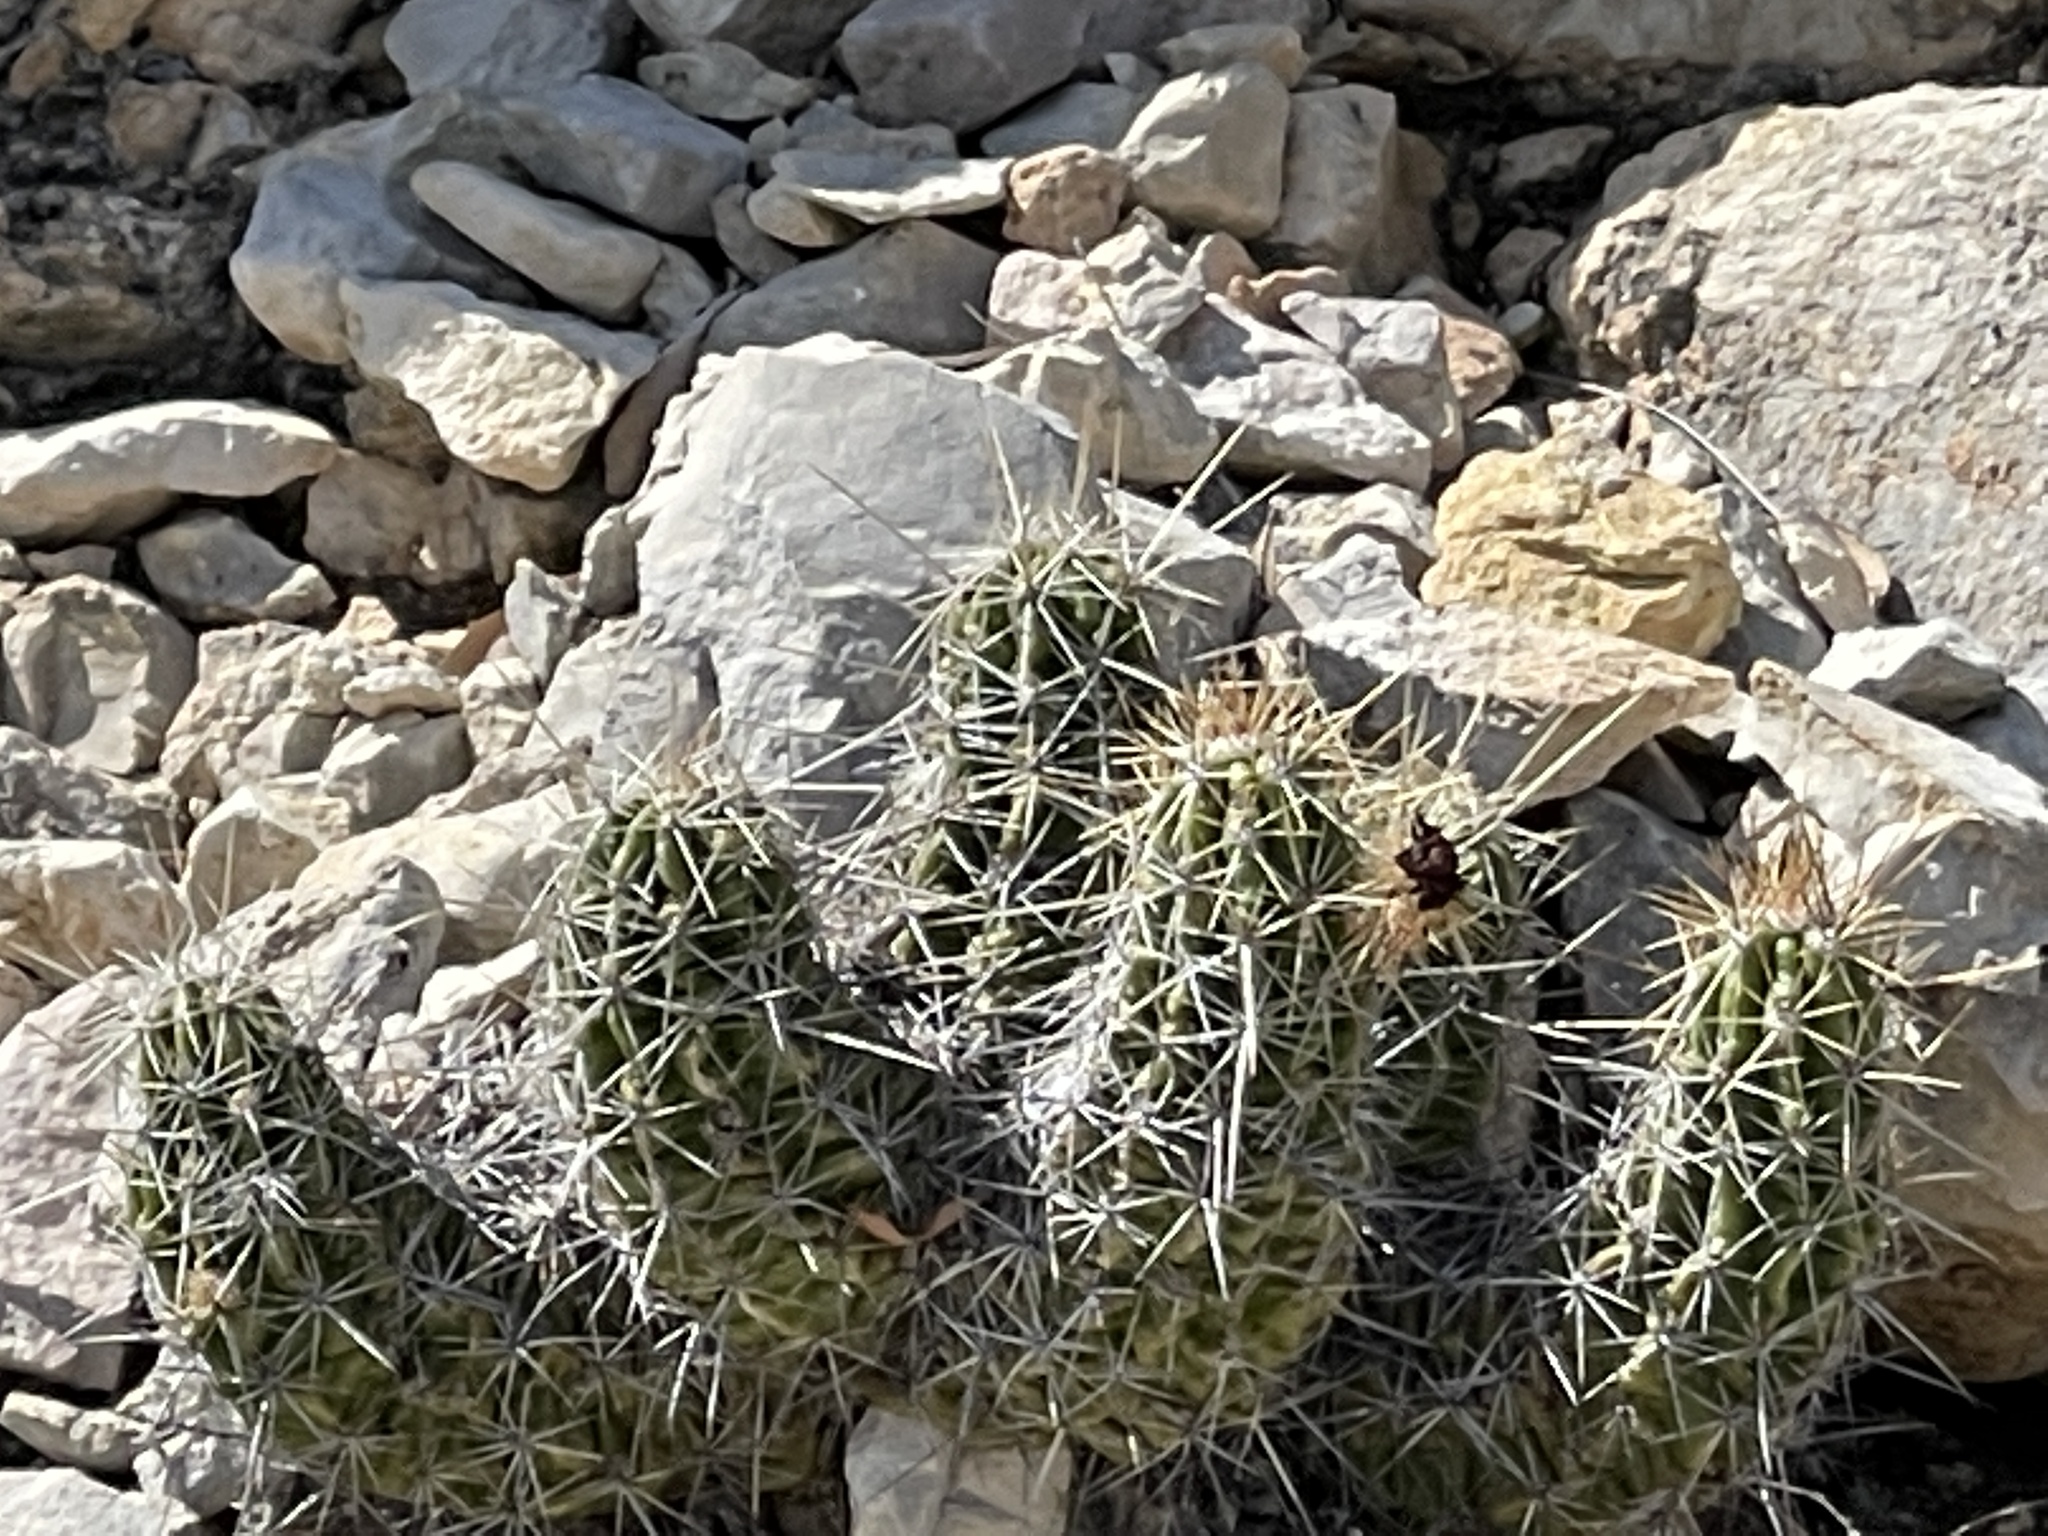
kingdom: Plantae
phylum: Tracheophyta
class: Magnoliopsida
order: Caryophyllales
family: Cactaceae
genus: Echinocereus
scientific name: Echinocereus enneacanthus
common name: Pitaya
